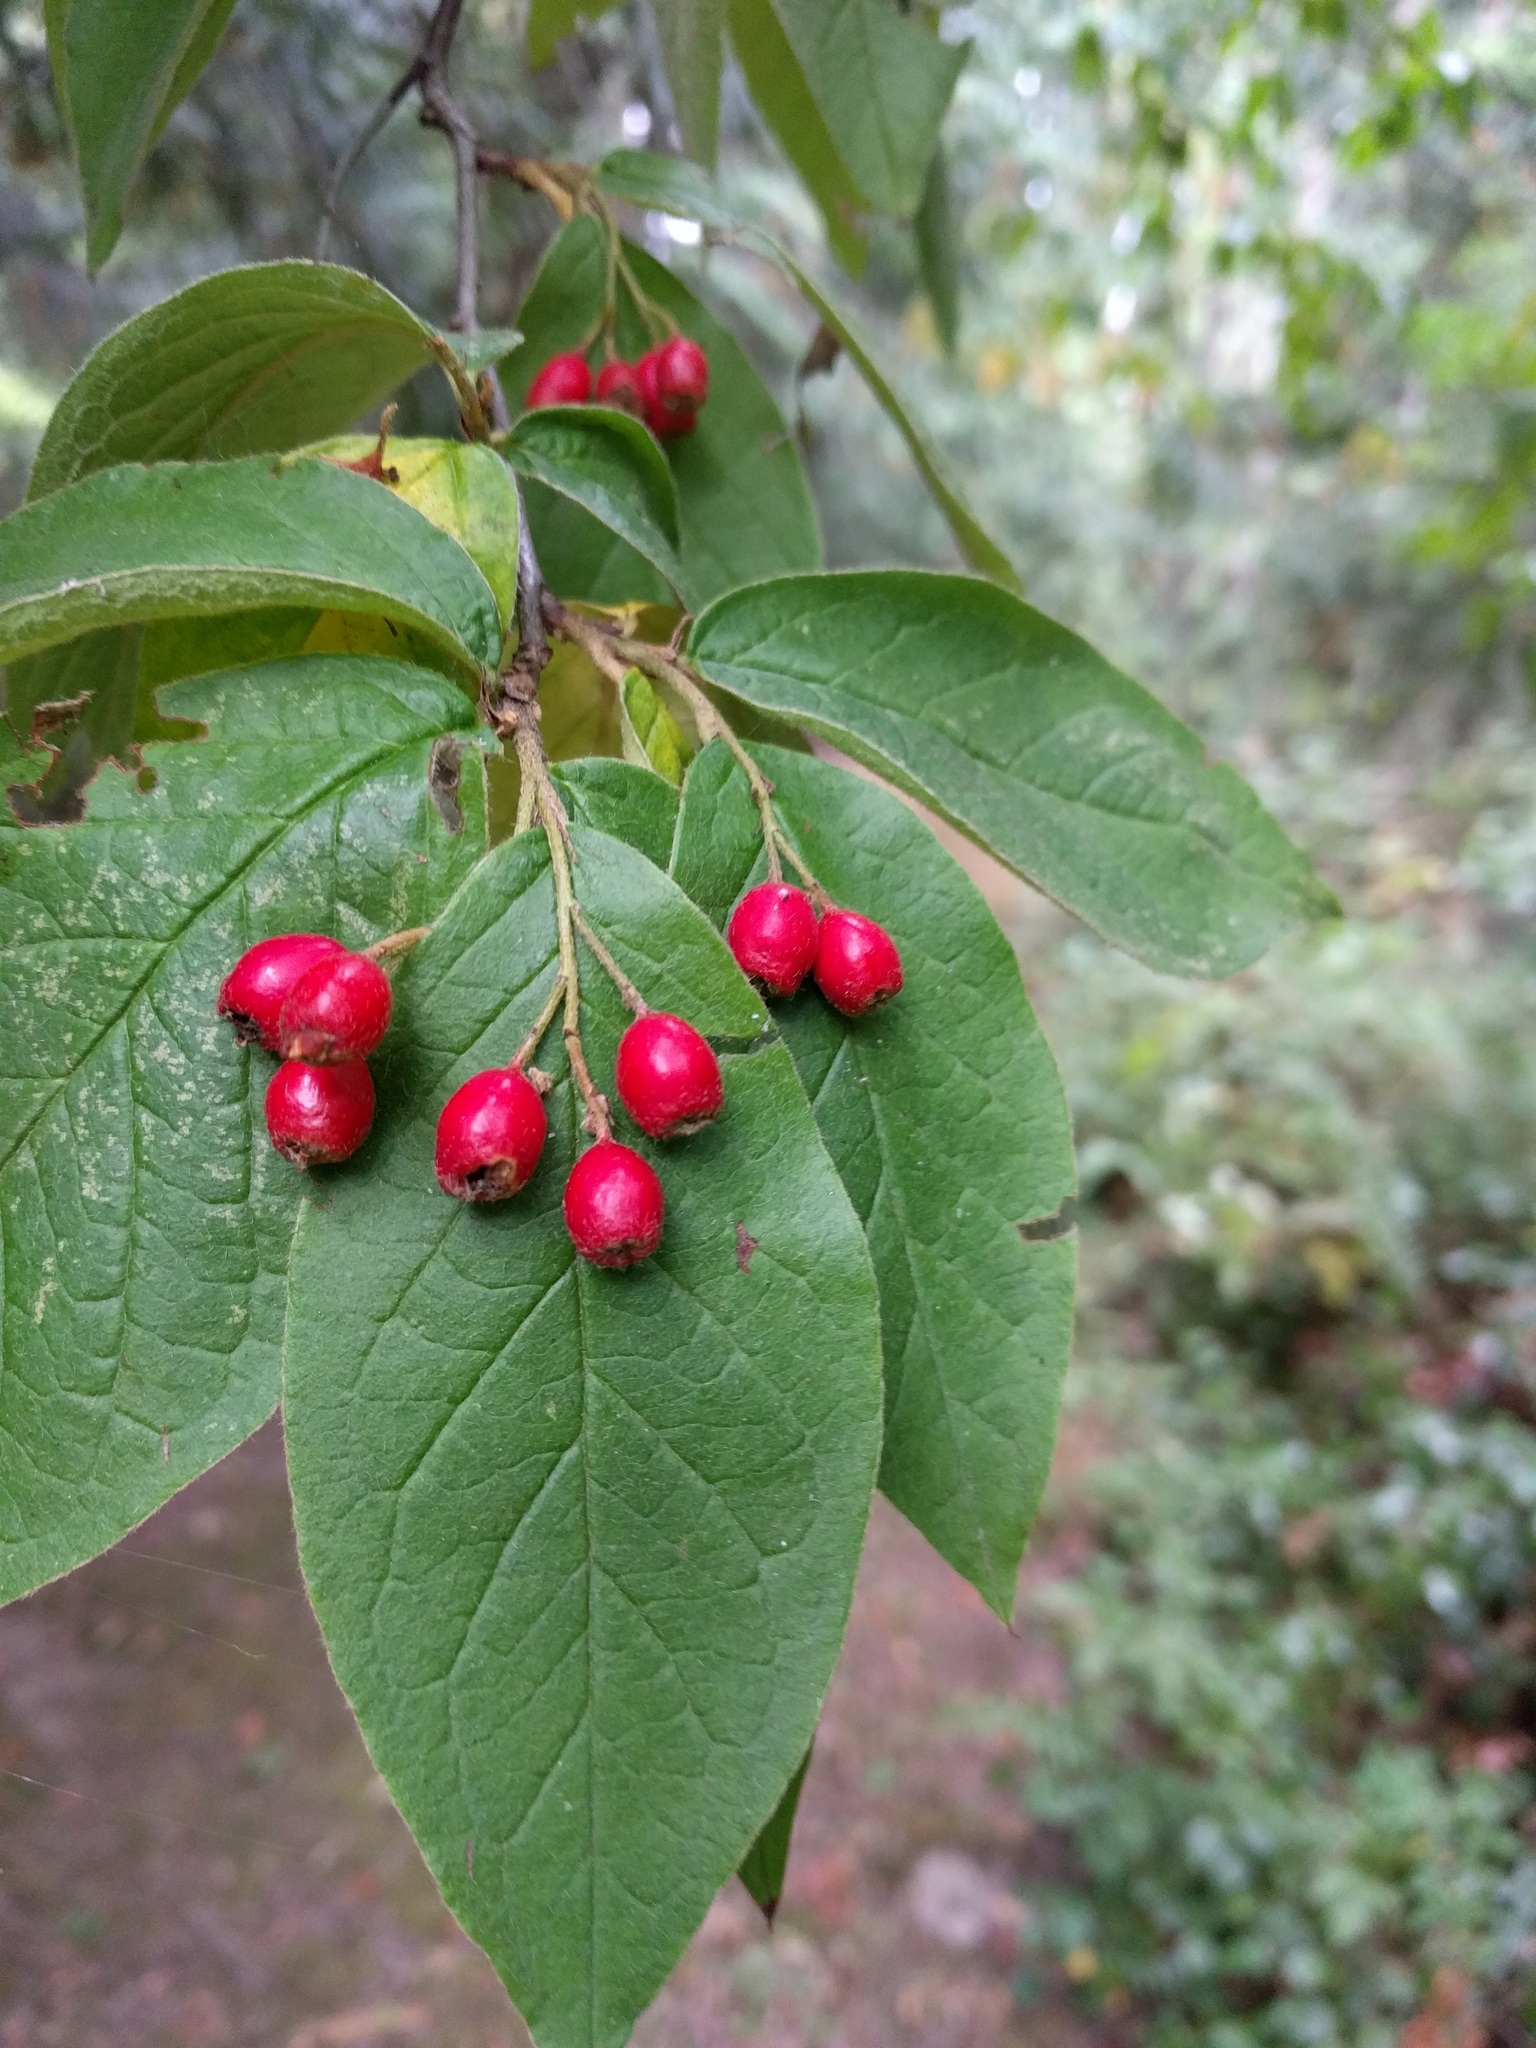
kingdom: Plantae
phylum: Tracheophyta
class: Magnoliopsida
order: Rosales
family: Rosaceae
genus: Cotoneaster
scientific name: Cotoneaster bullatus
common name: Hollyberry cotoneaster
